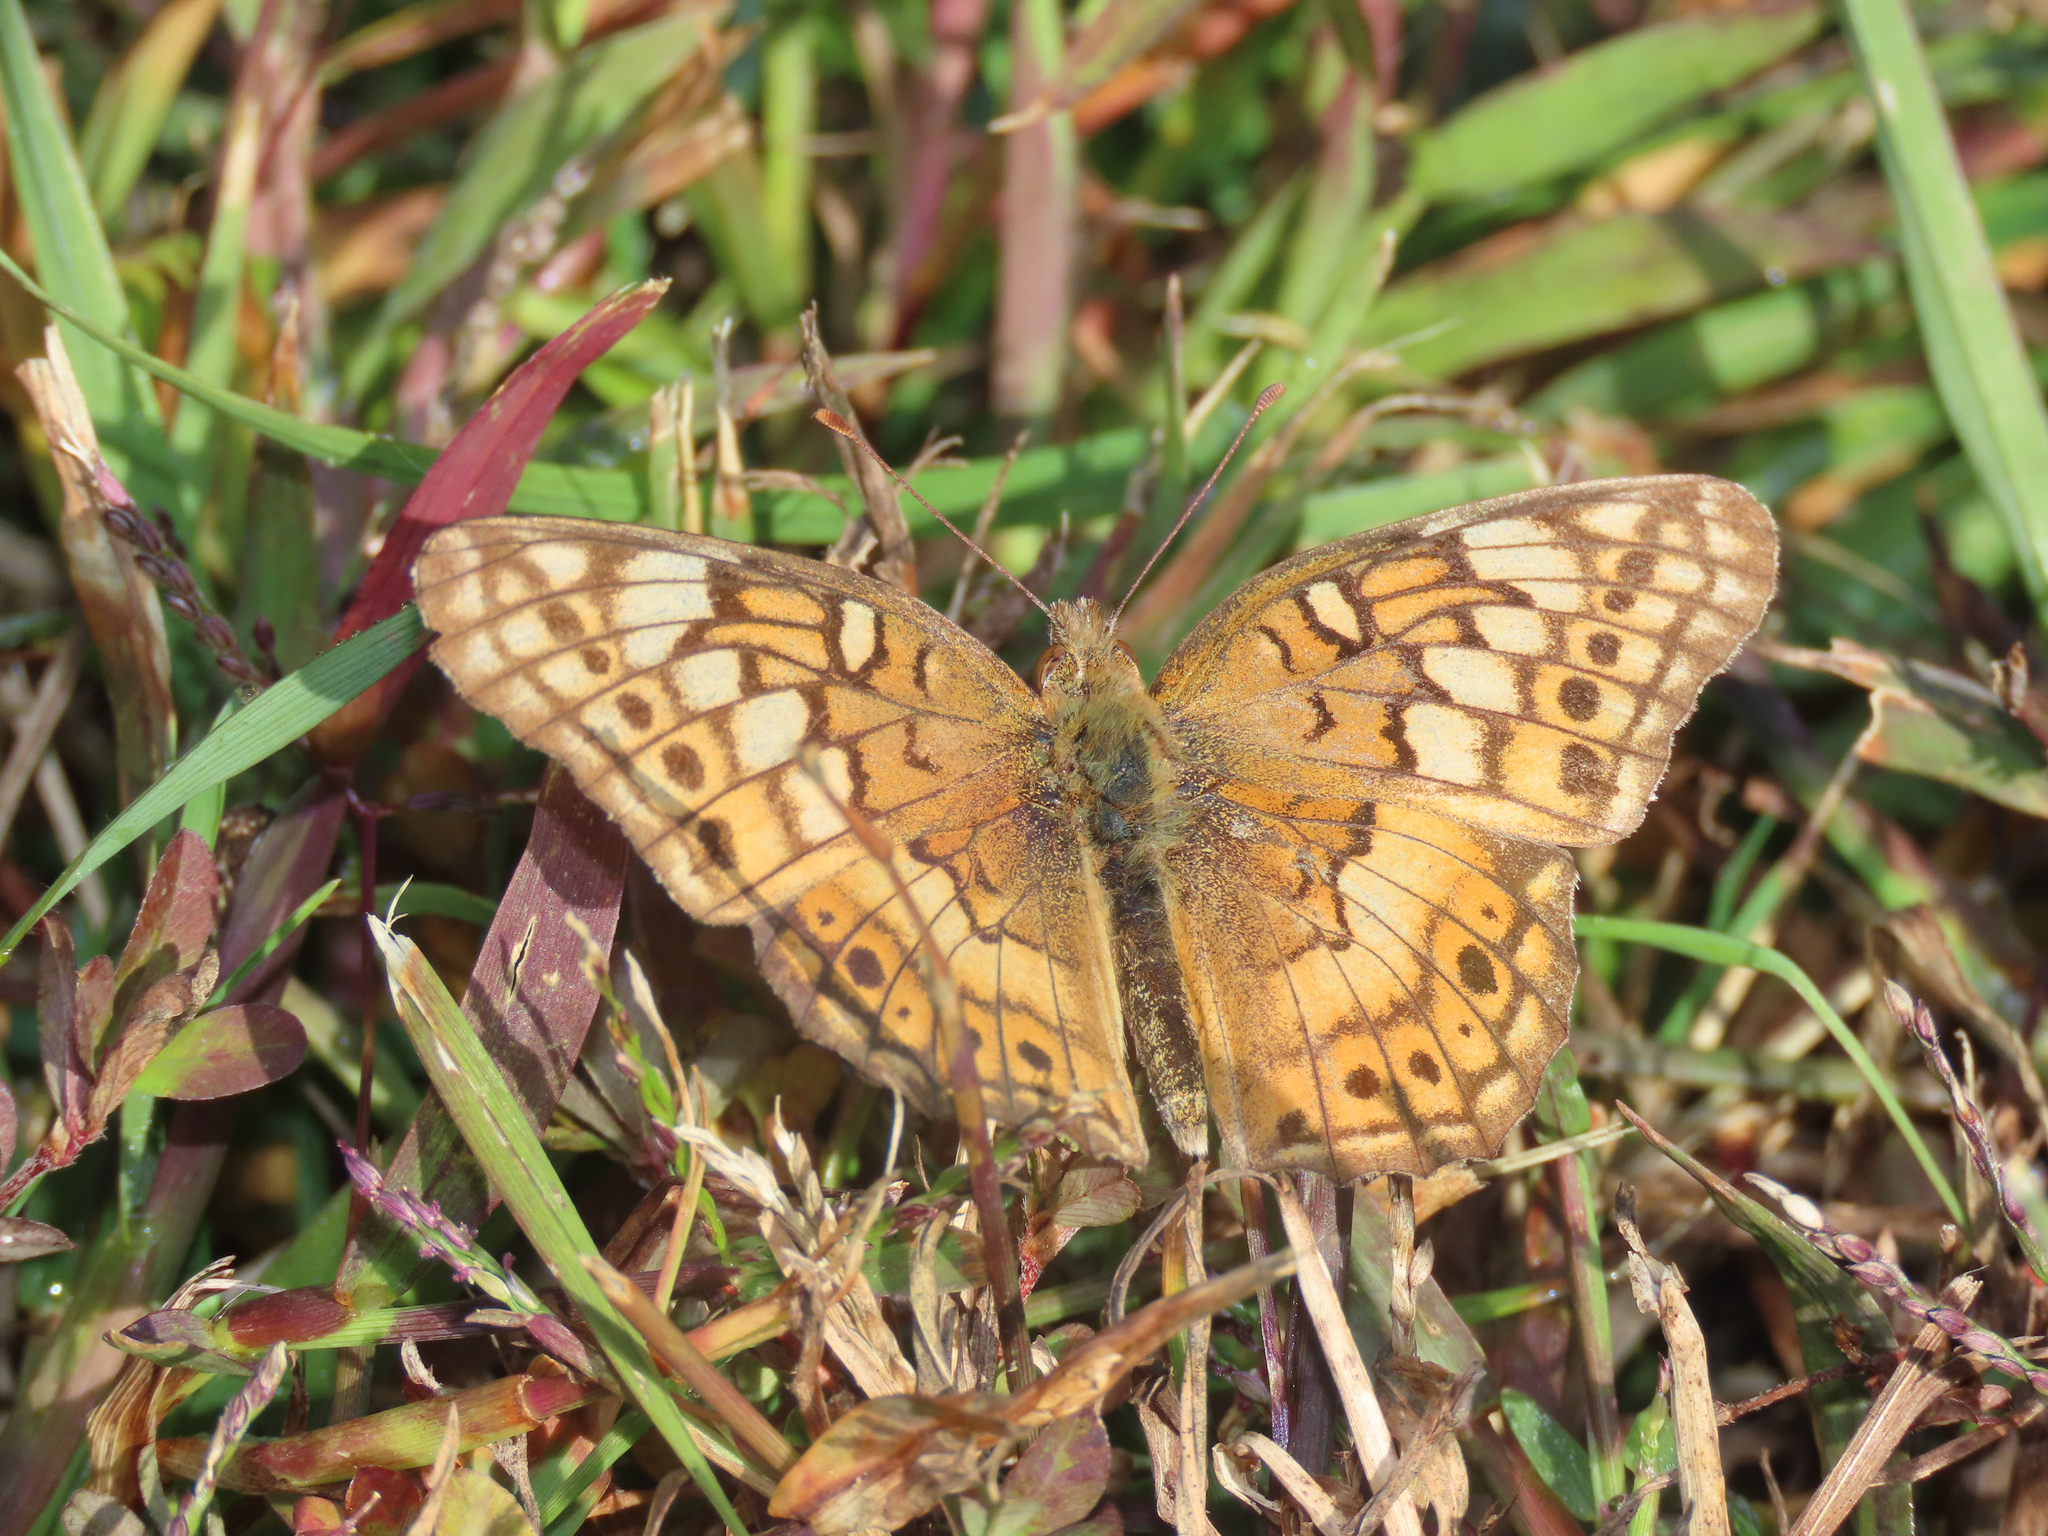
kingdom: Animalia
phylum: Arthropoda
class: Insecta
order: Lepidoptera
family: Nymphalidae
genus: Euptoieta
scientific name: Euptoieta claudia
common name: Variegated fritillary
